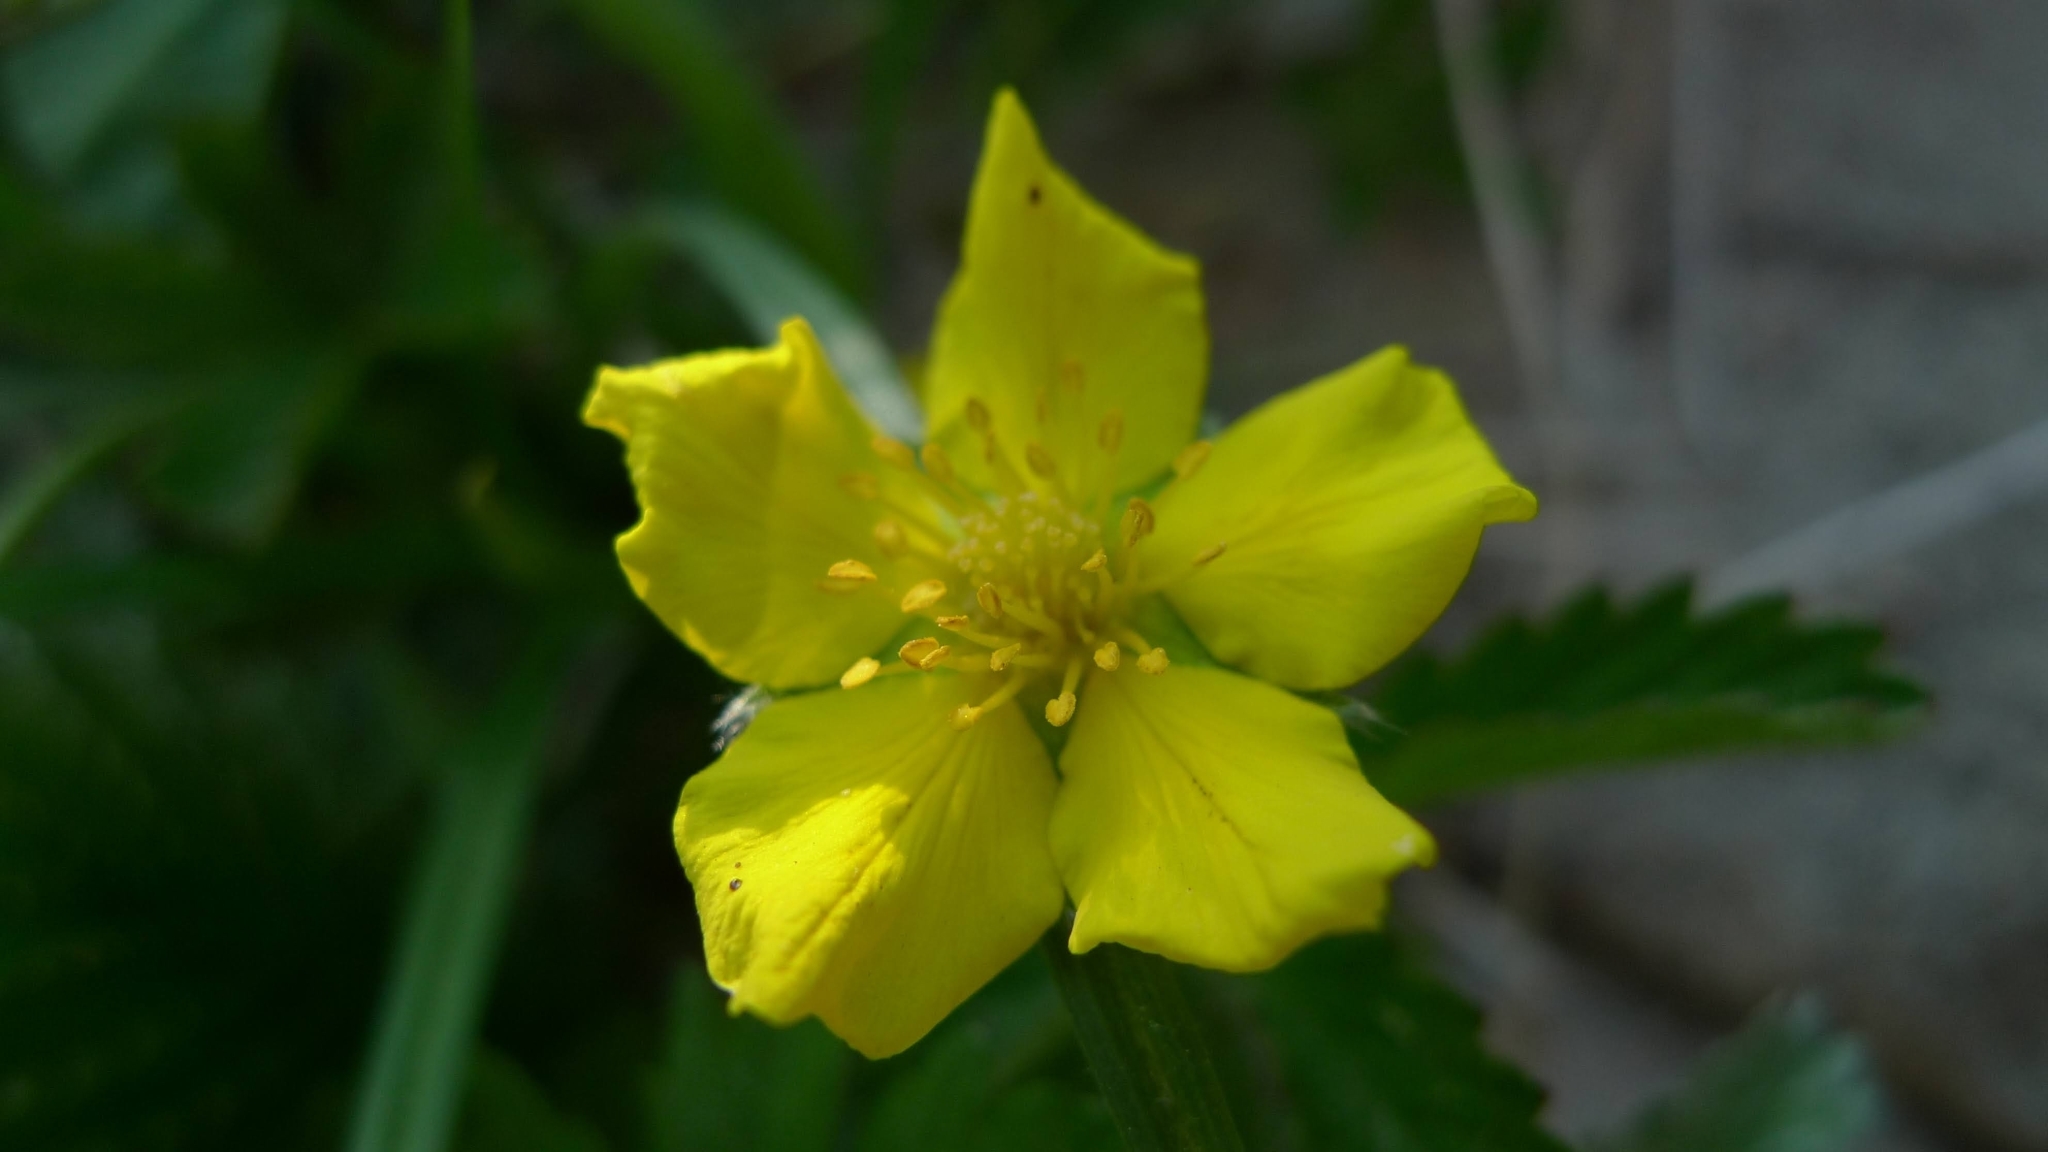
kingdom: Plantae
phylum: Tracheophyta
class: Magnoliopsida
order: Rosales
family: Rosaceae
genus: Argentina
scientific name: Argentina anserina
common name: Common silverweed
